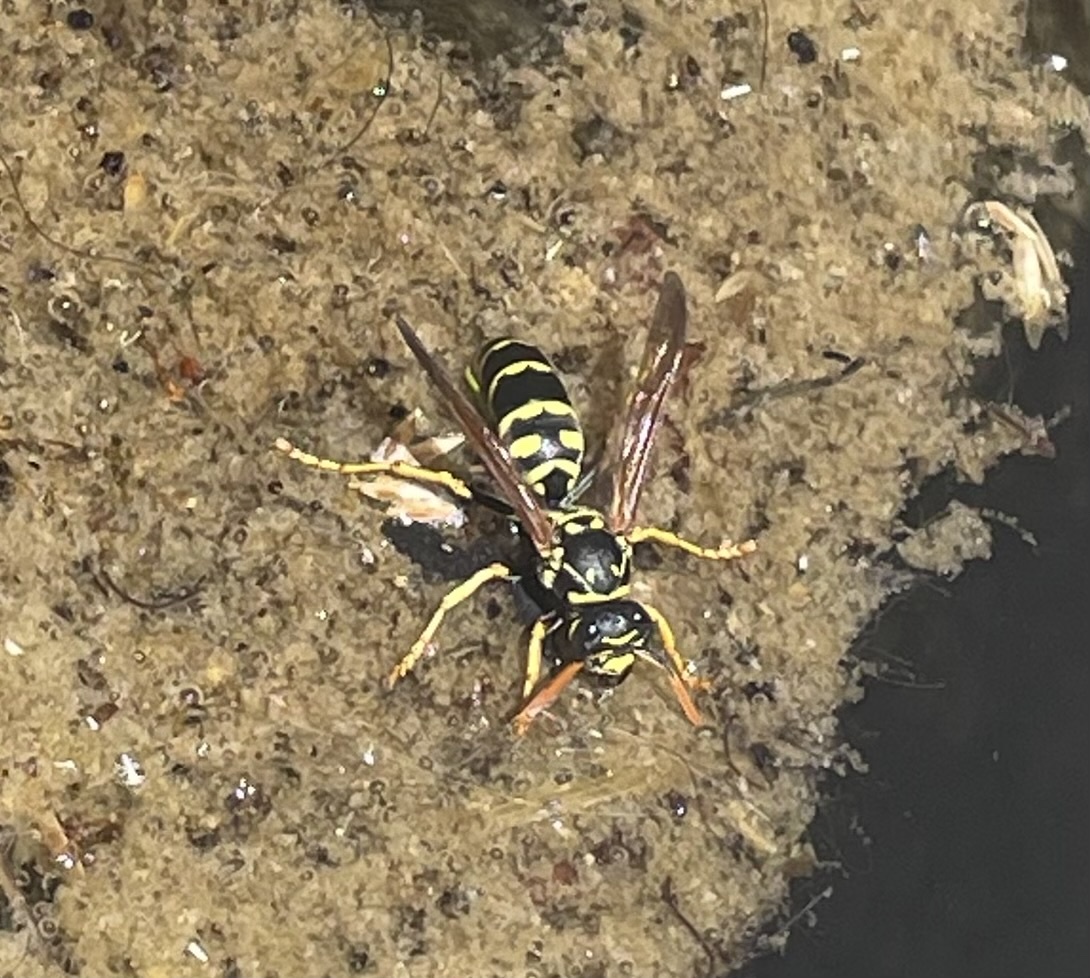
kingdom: Animalia
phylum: Arthropoda
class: Insecta
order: Hymenoptera
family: Eumenidae
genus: Polistes
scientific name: Polistes dominula
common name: Paper wasp
